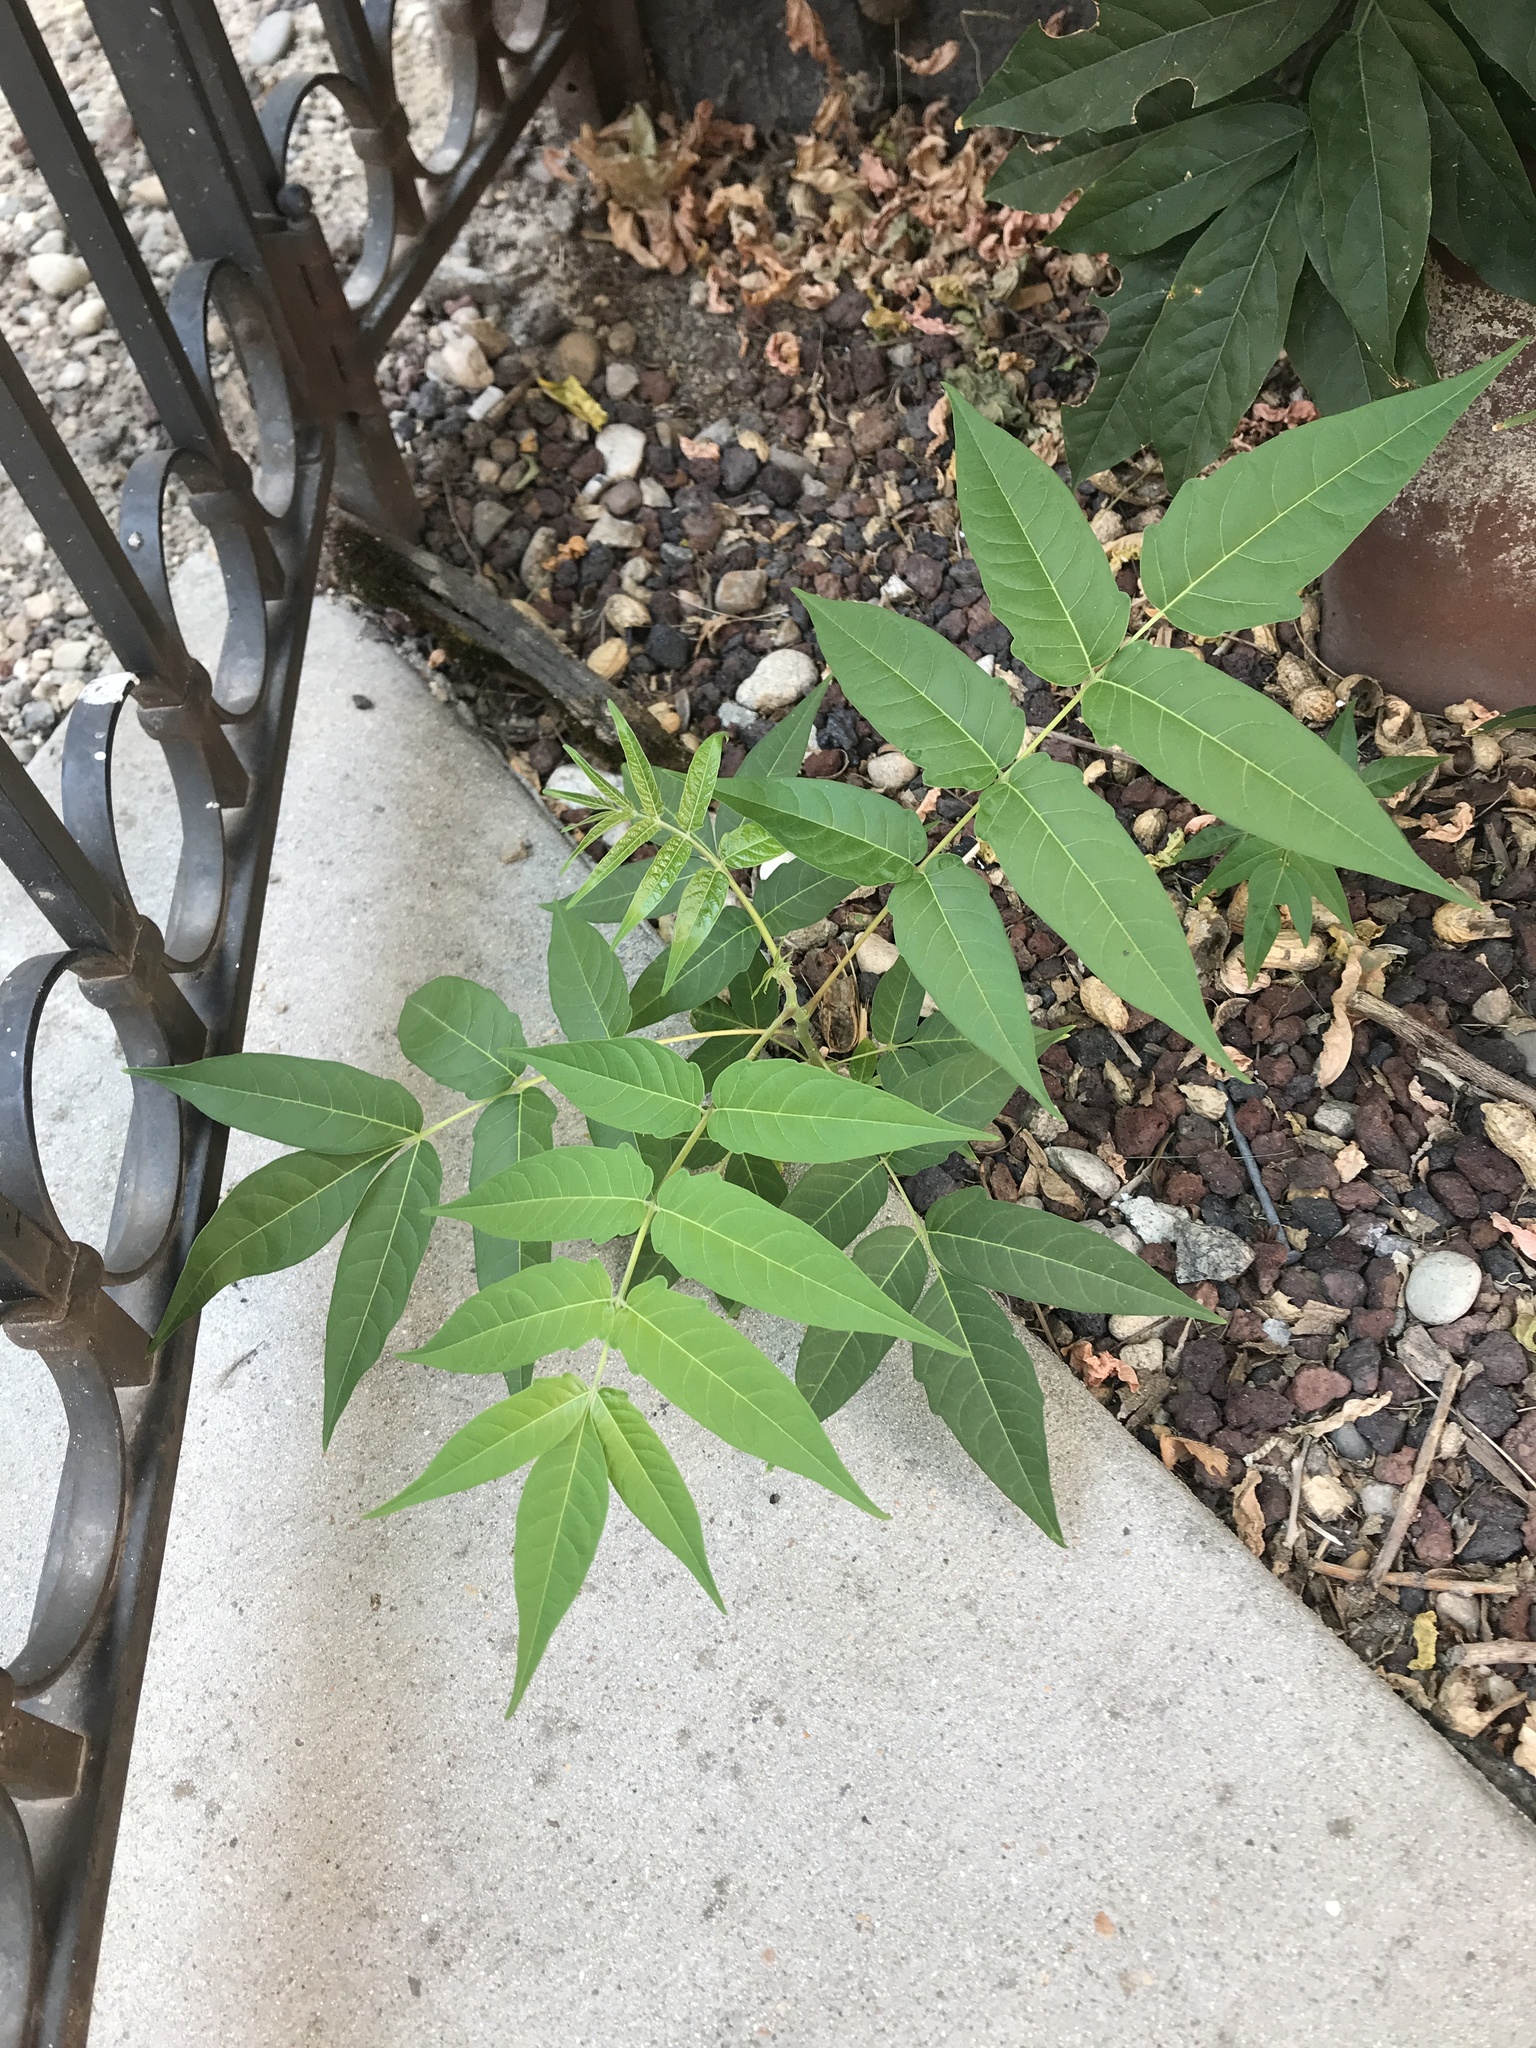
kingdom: Plantae
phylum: Tracheophyta
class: Magnoliopsida
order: Sapindales
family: Simaroubaceae
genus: Ailanthus
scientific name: Ailanthus altissima
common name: Tree-of-heaven
